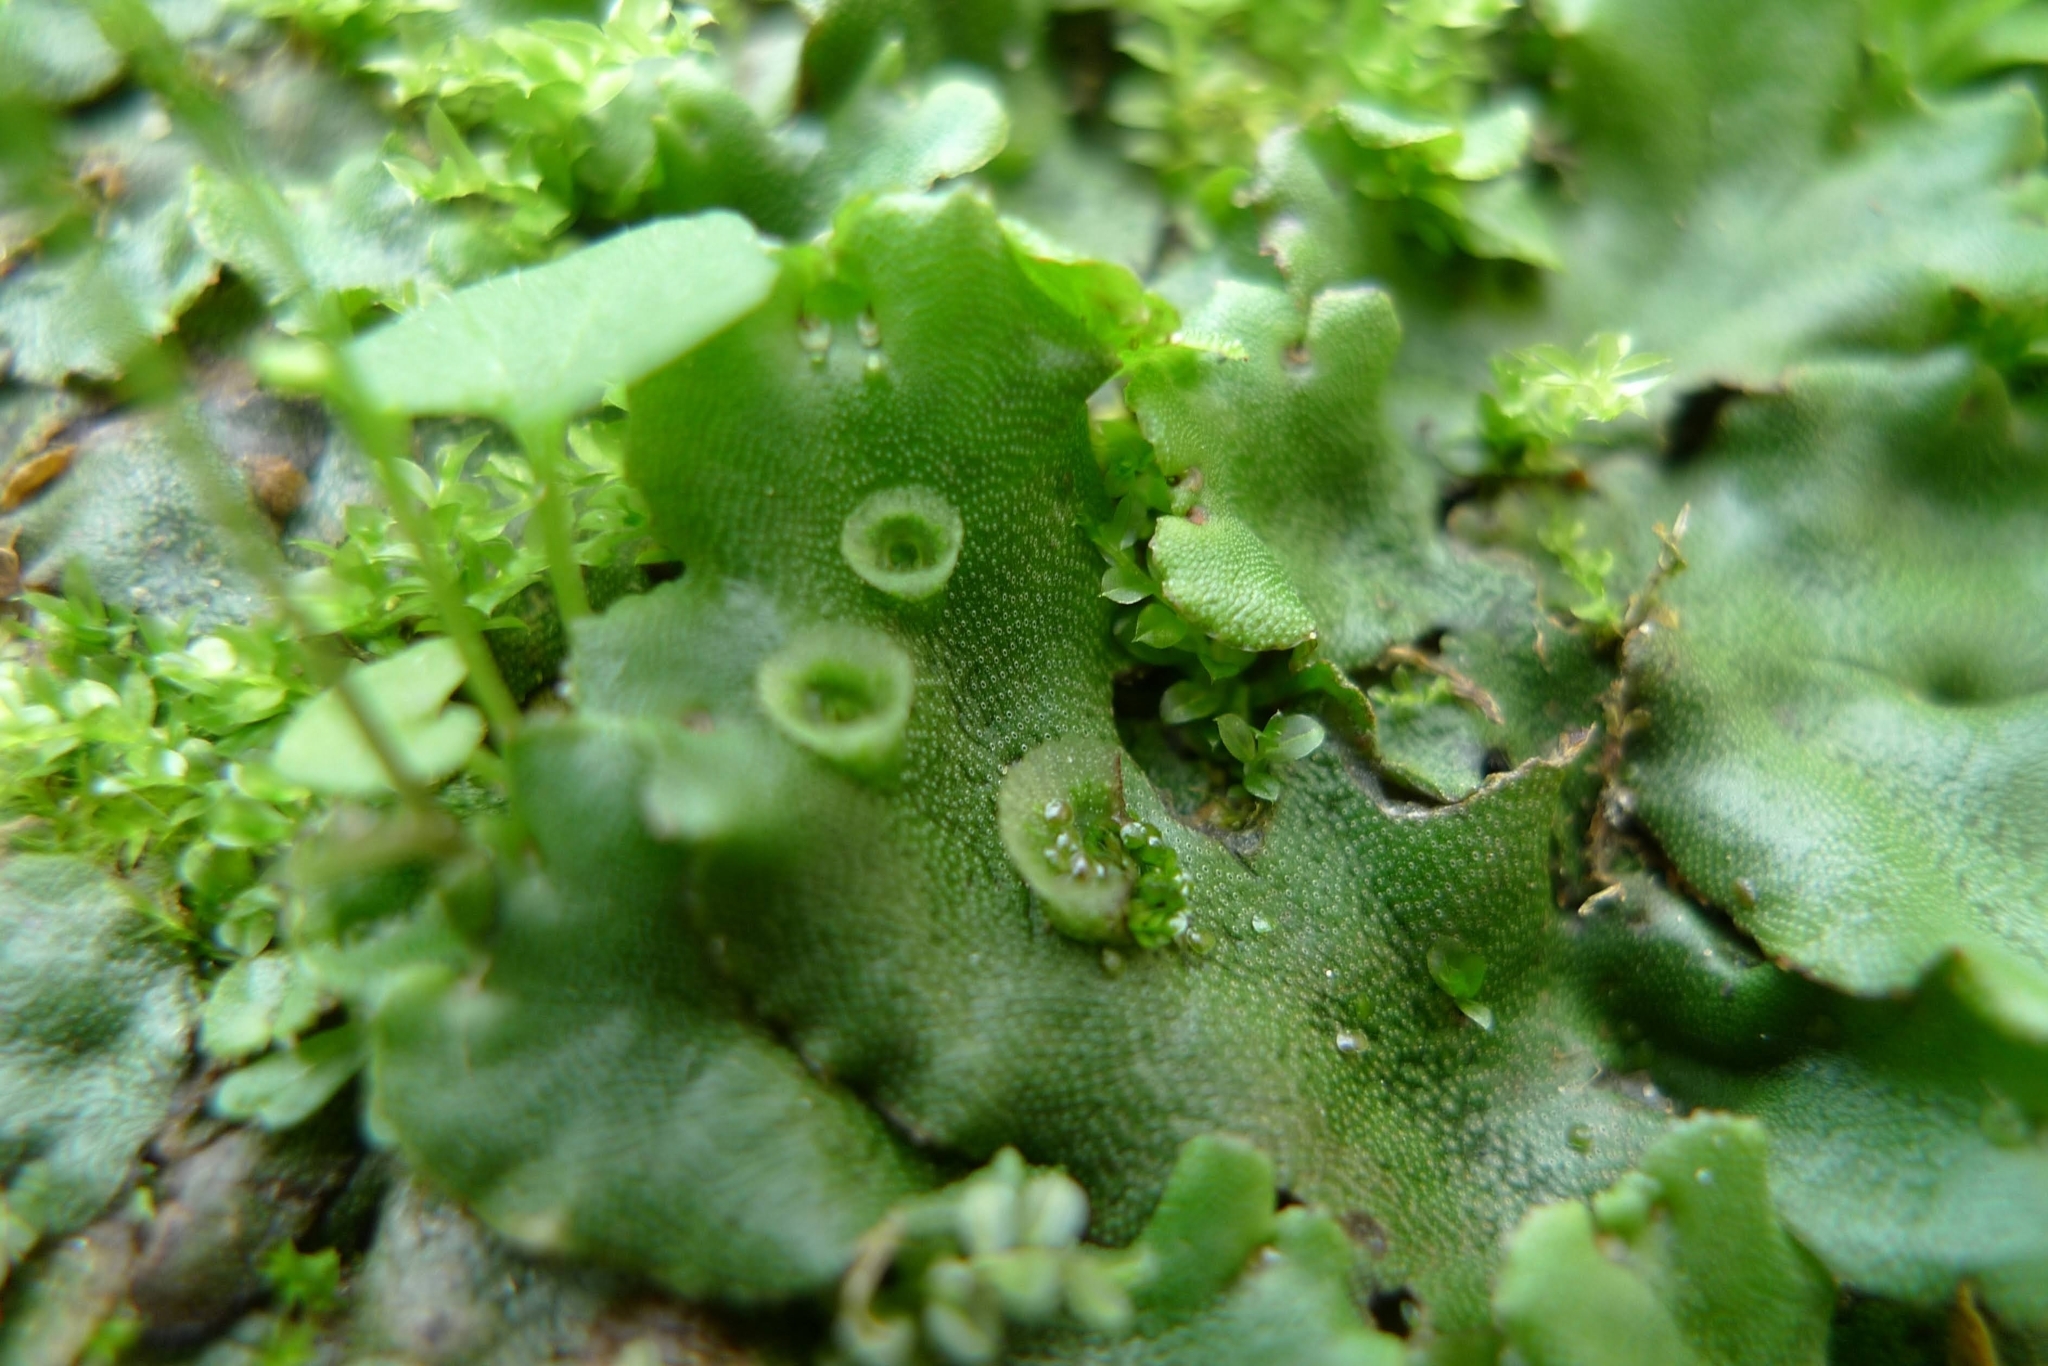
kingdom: Plantae
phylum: Marchantiophyta
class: Marchantiopsida
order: Marchantiales
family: Marchantiaceae
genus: Marchantia
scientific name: Marchantia polymorpha
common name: Common liverwort
